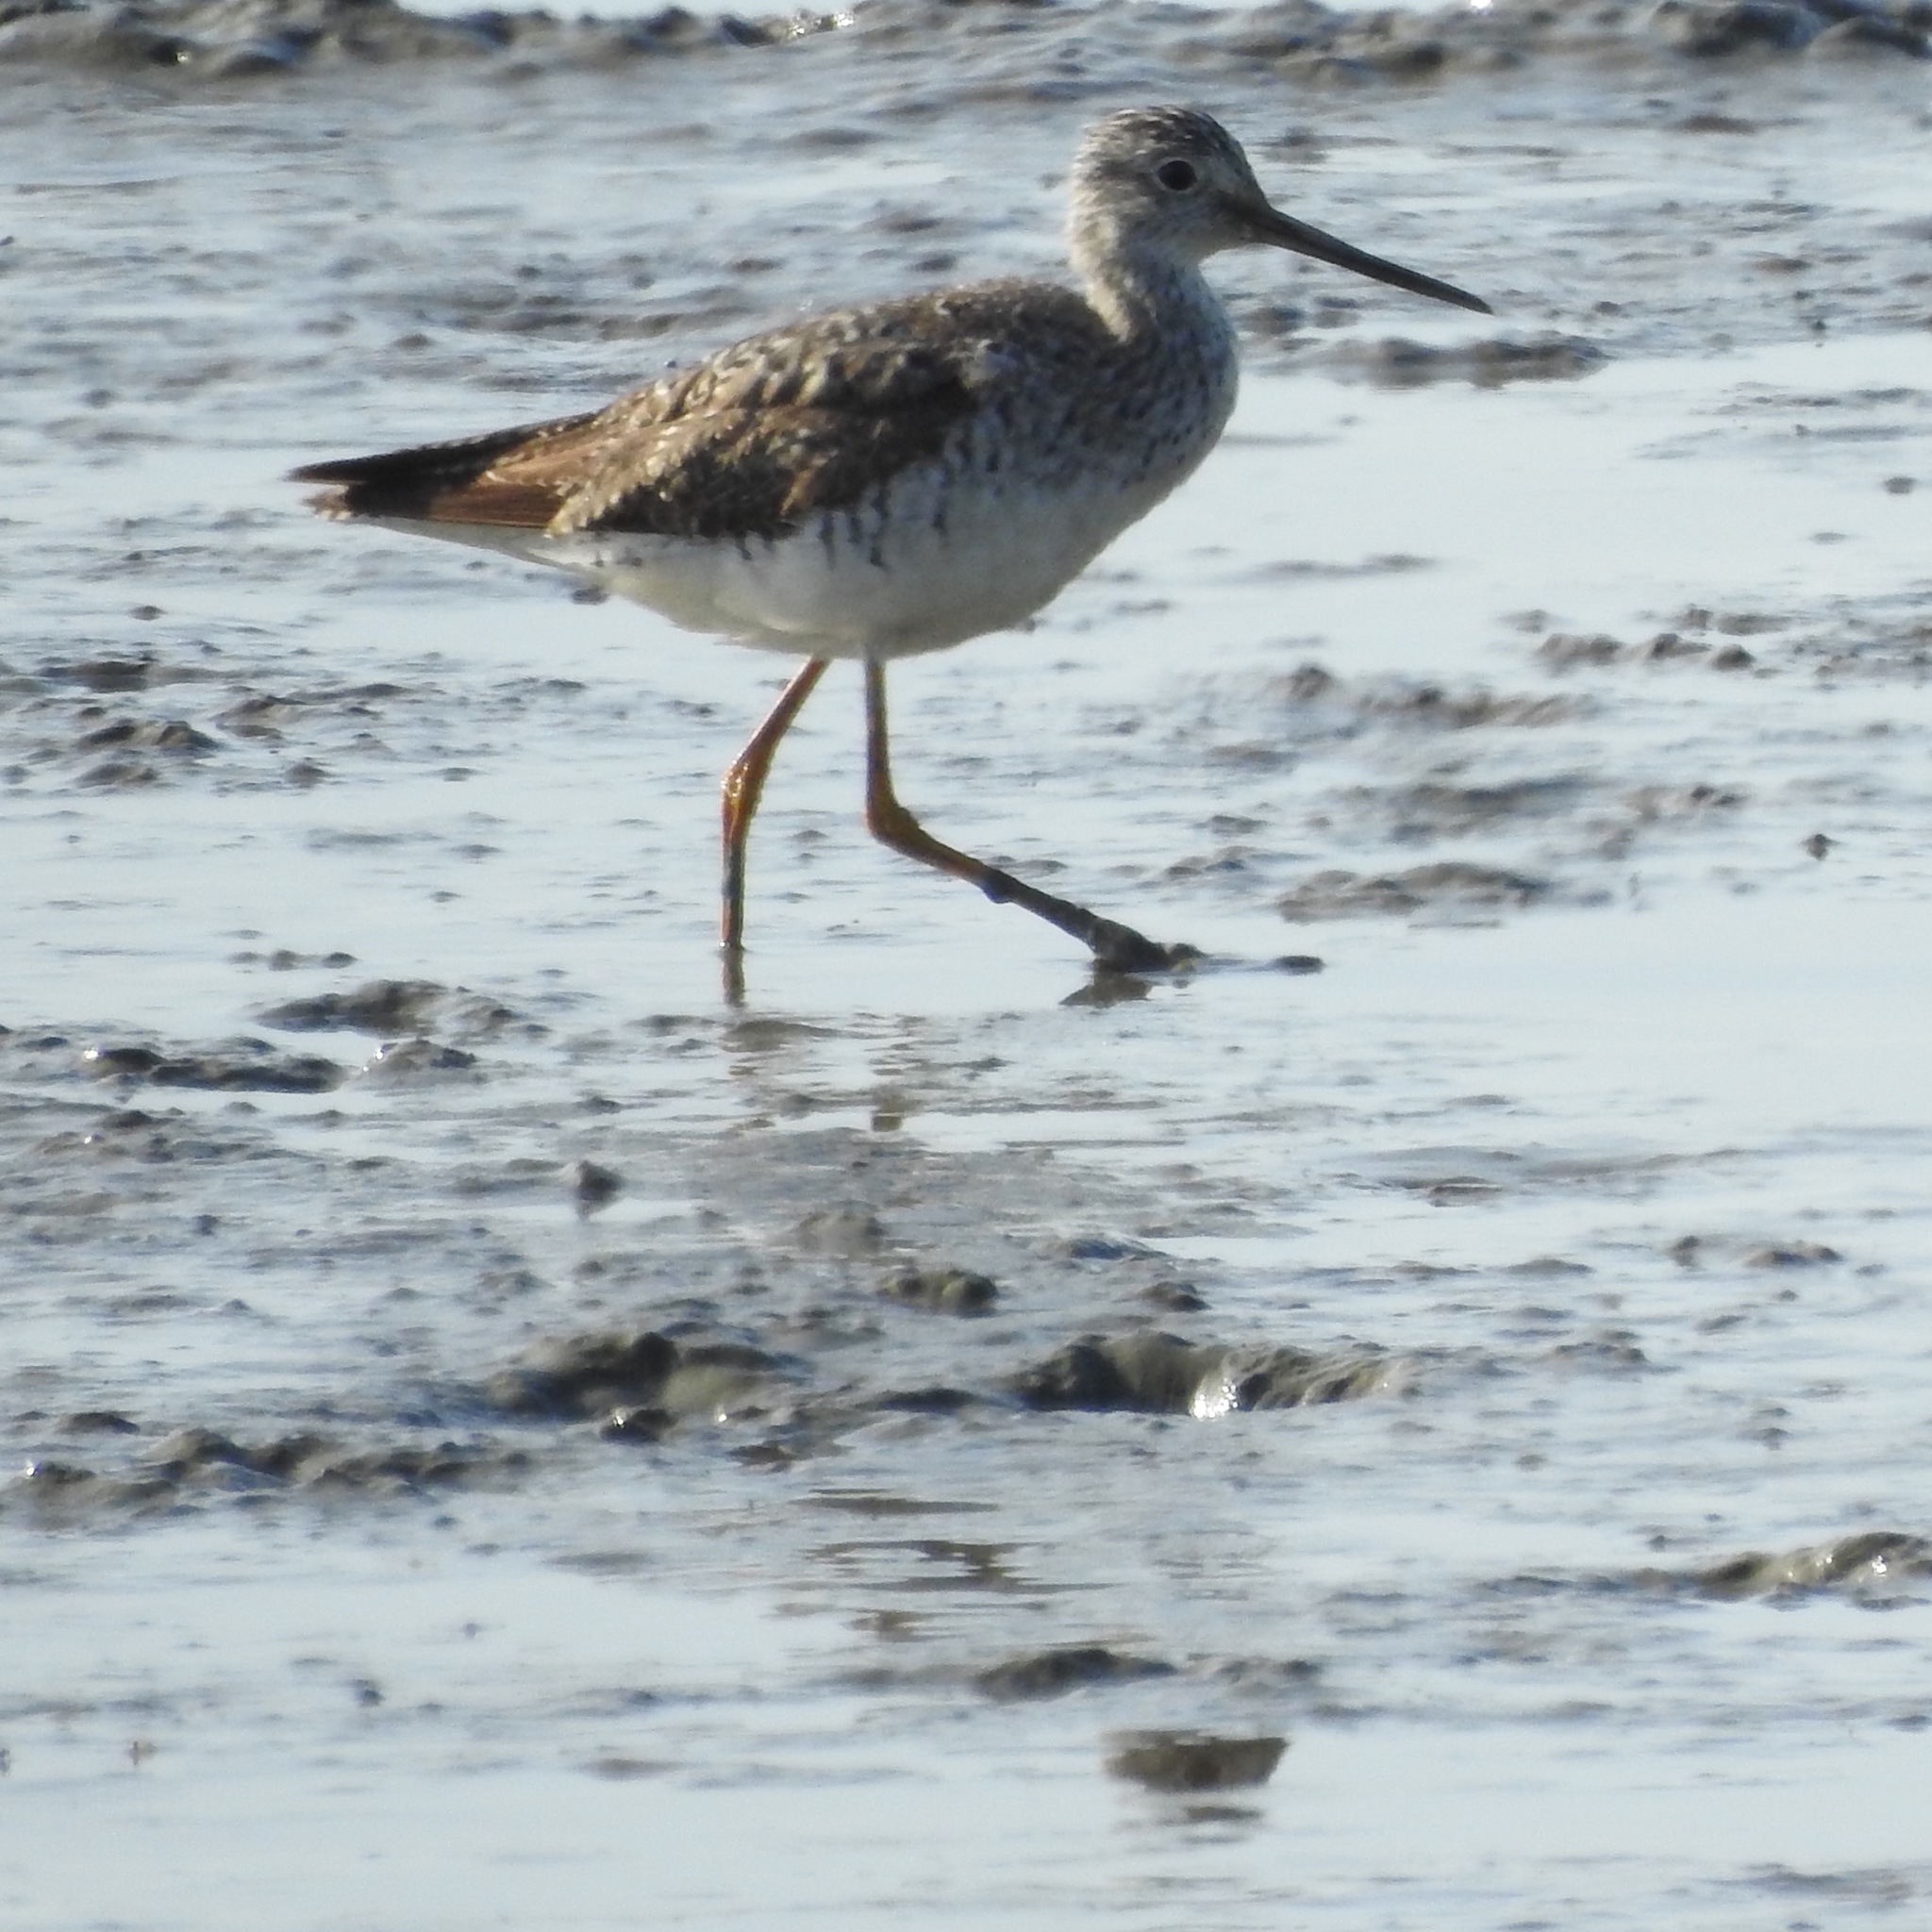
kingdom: Animalia
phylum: Chordata
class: Aves
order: Charadriiformes
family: Scolopacidae
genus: Tringa
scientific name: Tringa melanoleuca
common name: Greater yellowlegs
